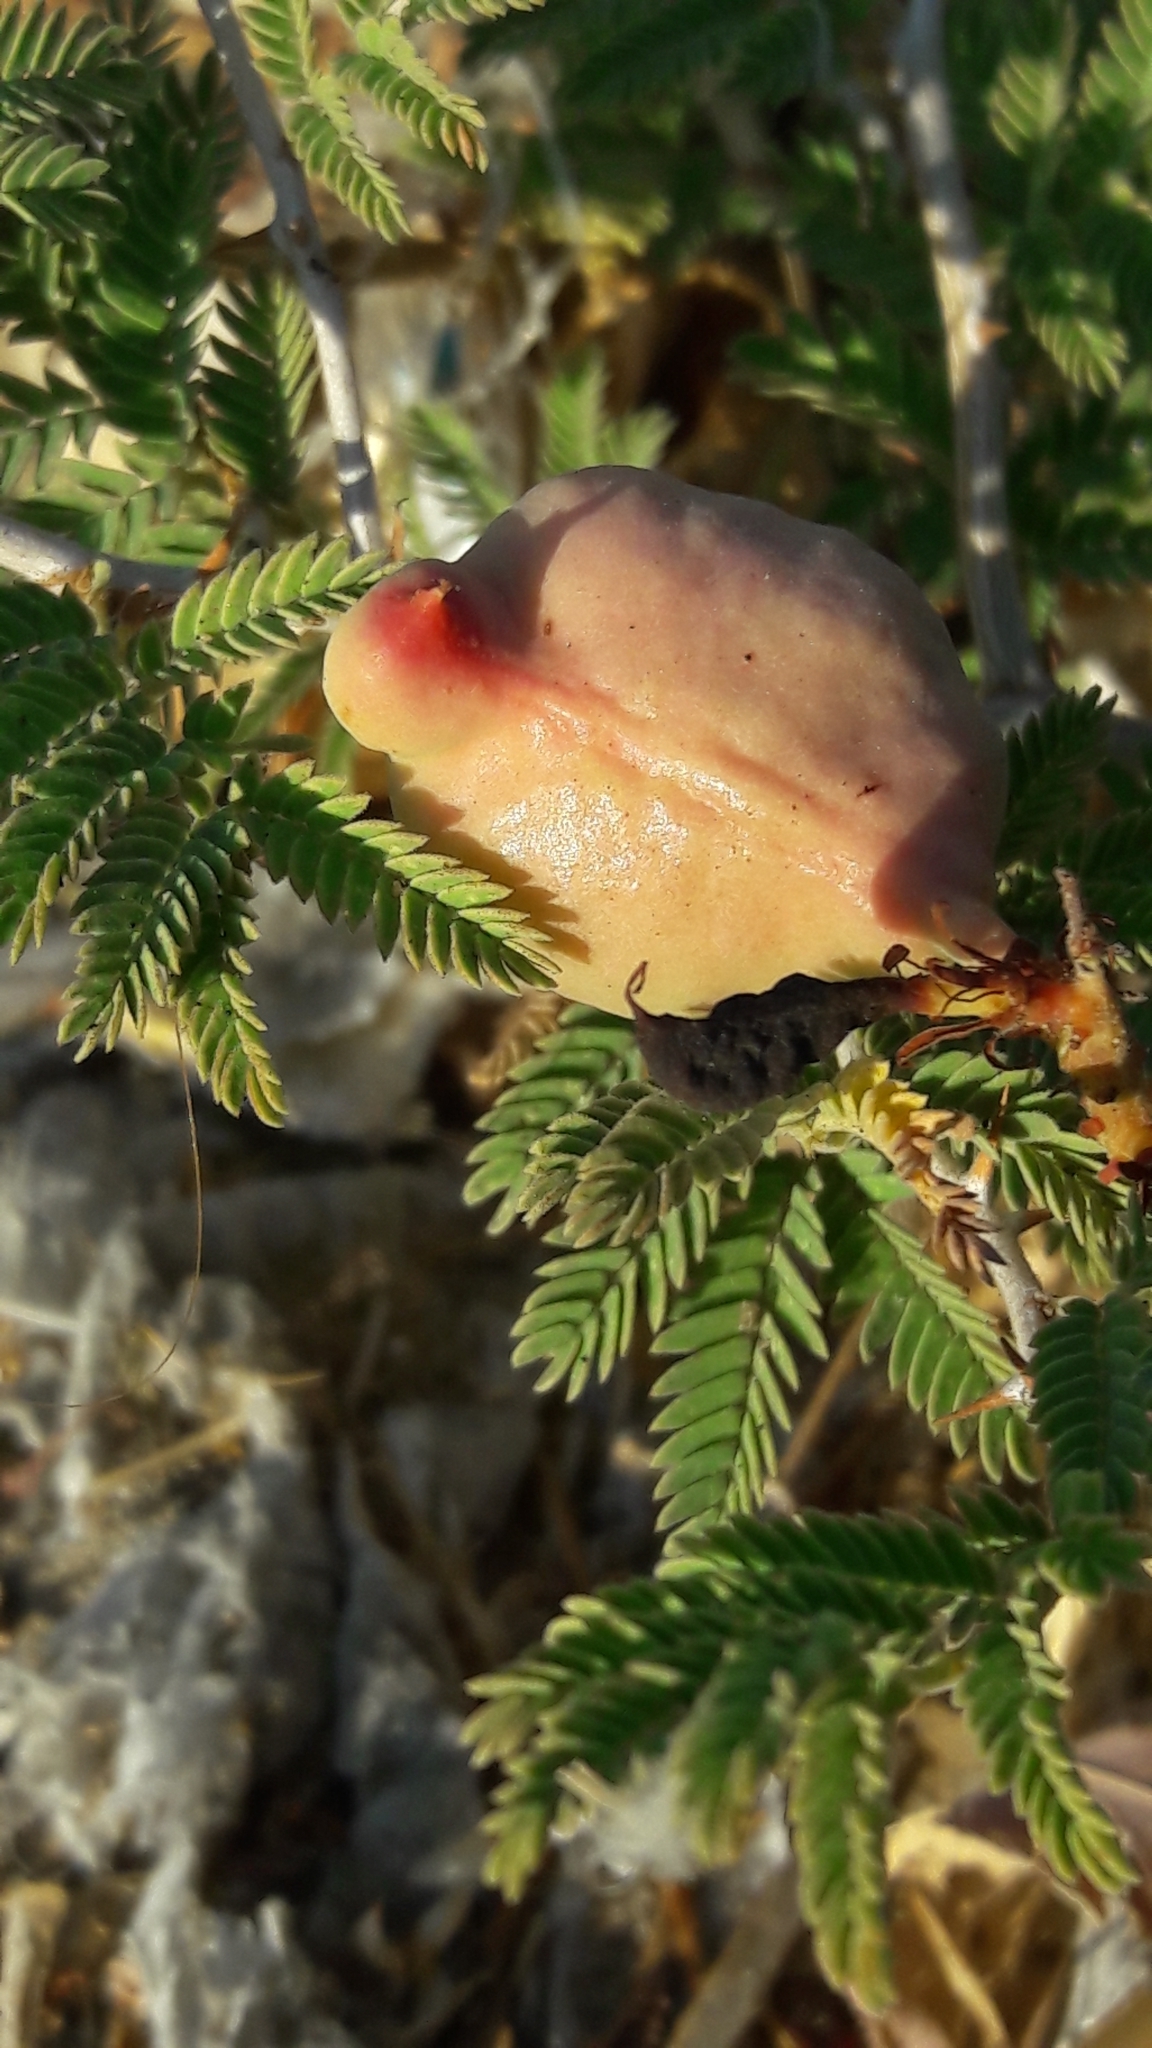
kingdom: Plantae
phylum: Tracheophyta
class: Magnoliopsida
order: Fabales
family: Fabaceae
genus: Prosopis
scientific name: Prosopis farcta
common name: Syrian mesquite
